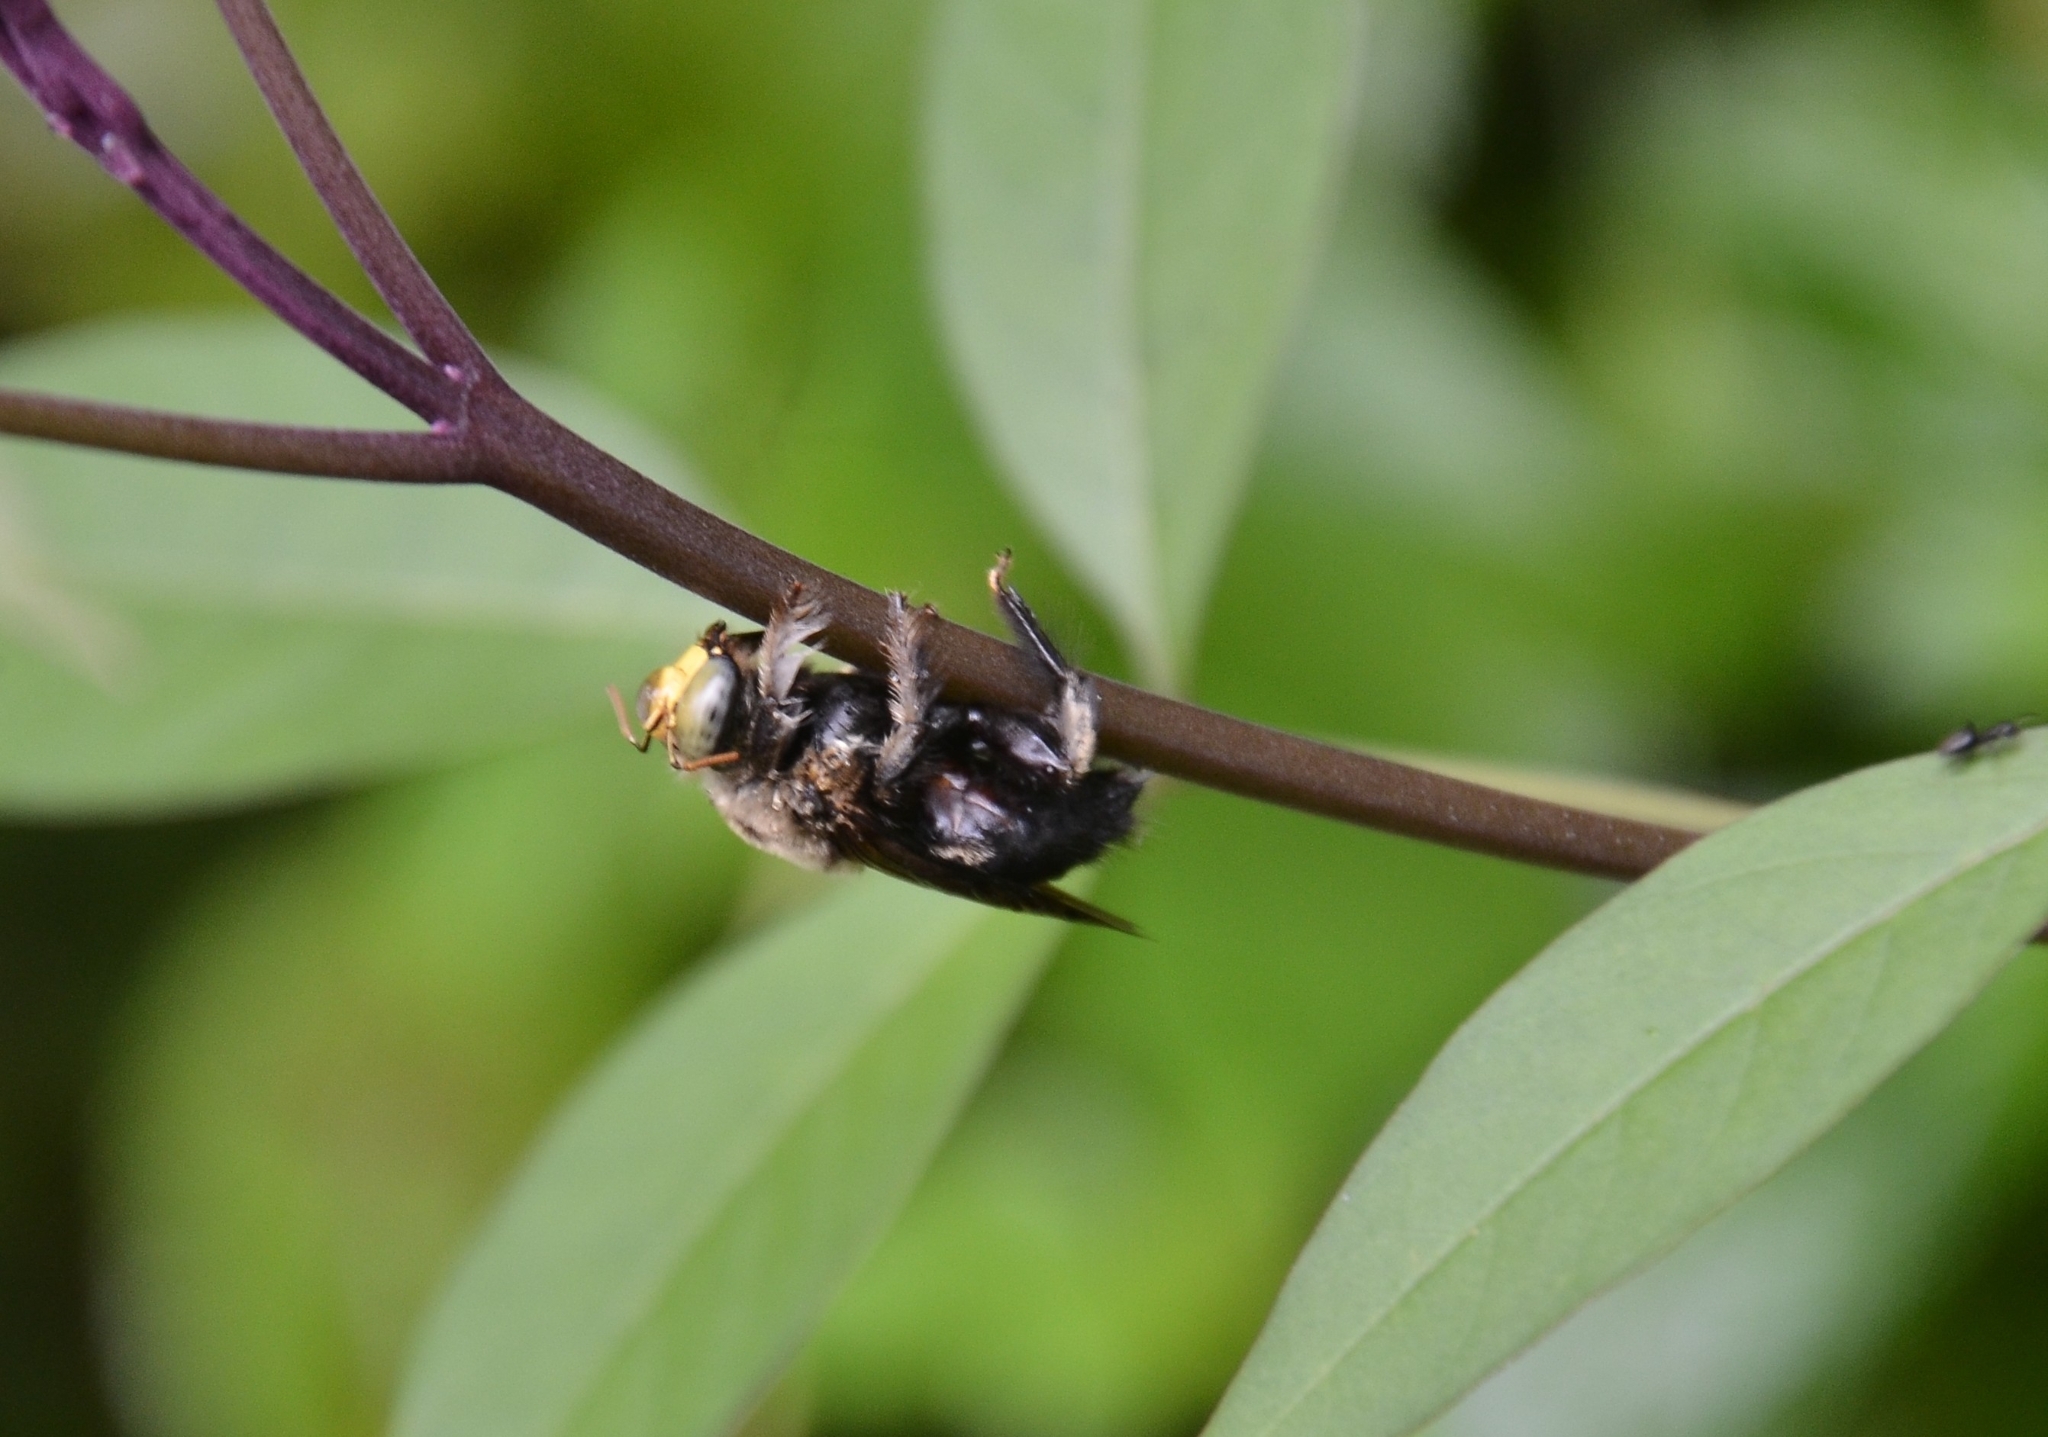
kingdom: Animalia
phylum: Arthropoda
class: Insecta
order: Hymenoptera
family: Apidae
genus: Xylocopa
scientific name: Xylocopa bhowara
